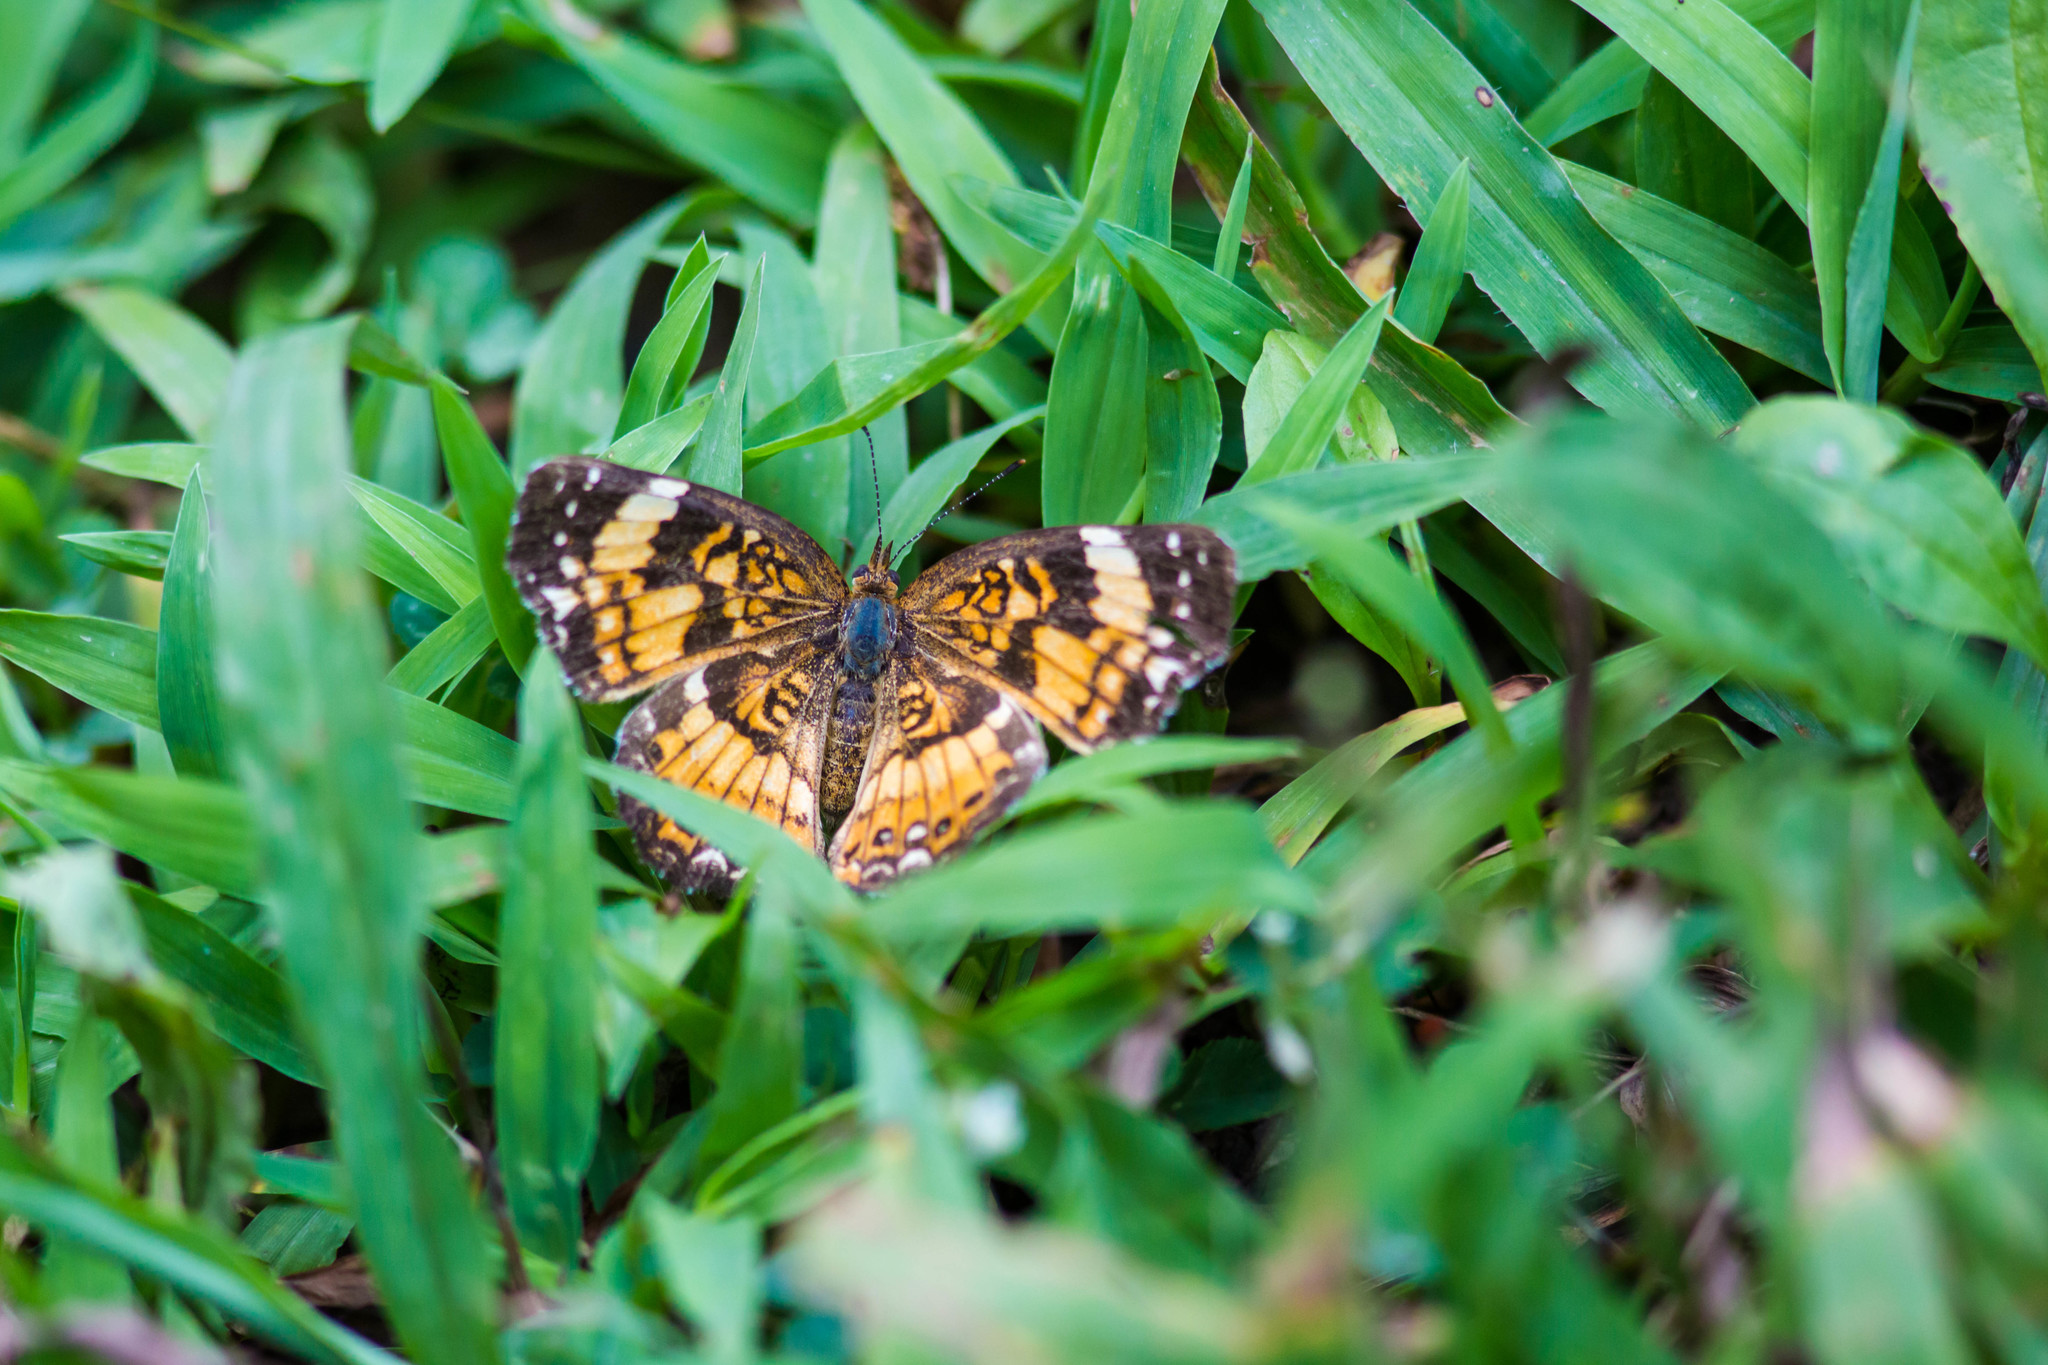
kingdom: Animalia
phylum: Arthropoda
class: Insecta
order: Lepidoptera
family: Nymphalidae
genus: Chlosyne
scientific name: Chlosyne nycteis
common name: Silvery checkerspot
